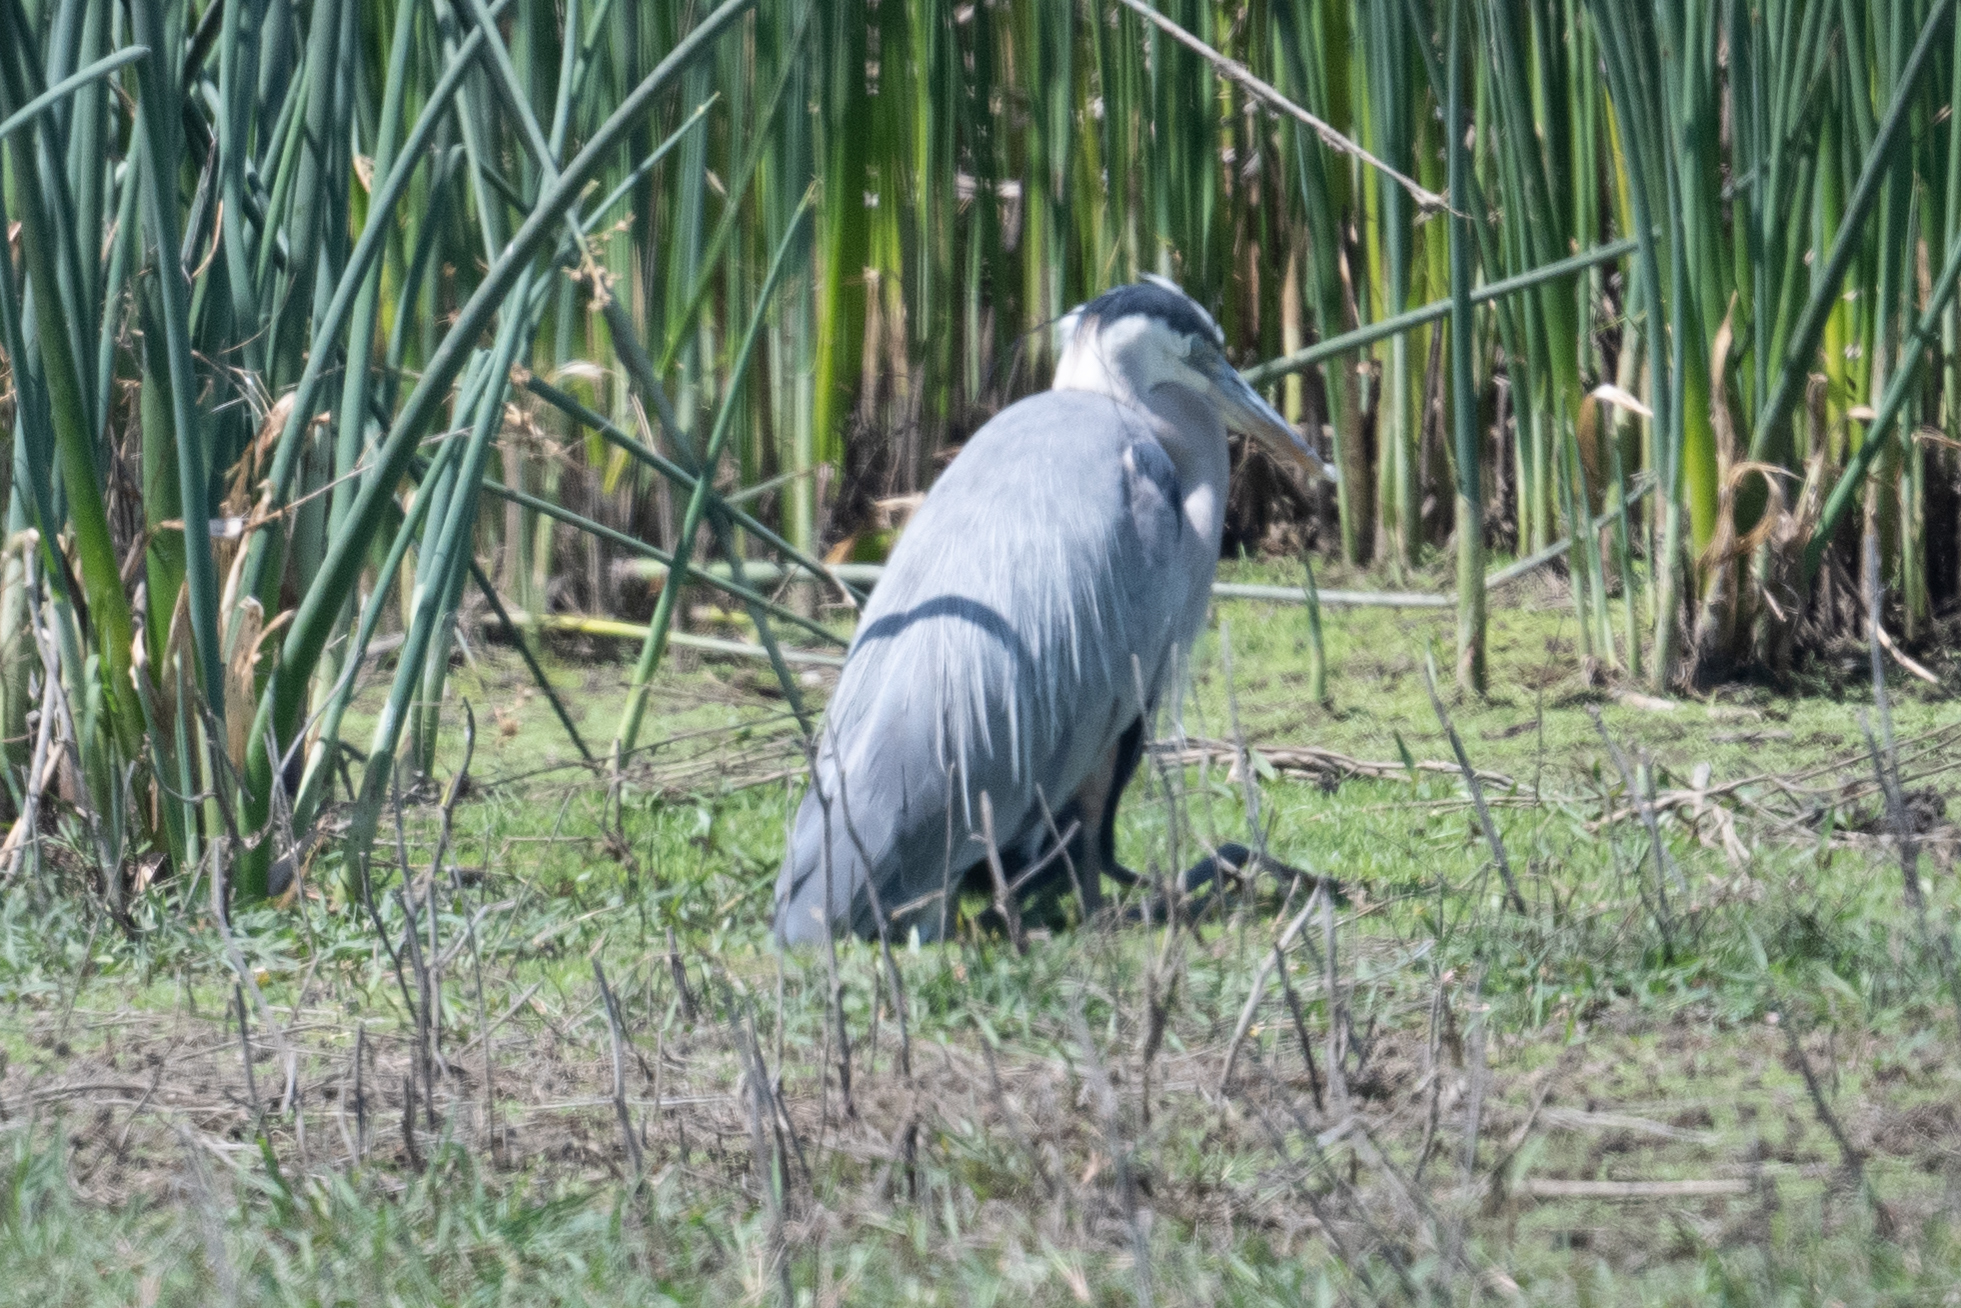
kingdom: Animalia
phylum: Chordata
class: Aves
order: Pelecaniformes
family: Ardeidae
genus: Ardea
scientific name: Ardea herodias
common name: Great blue heron
